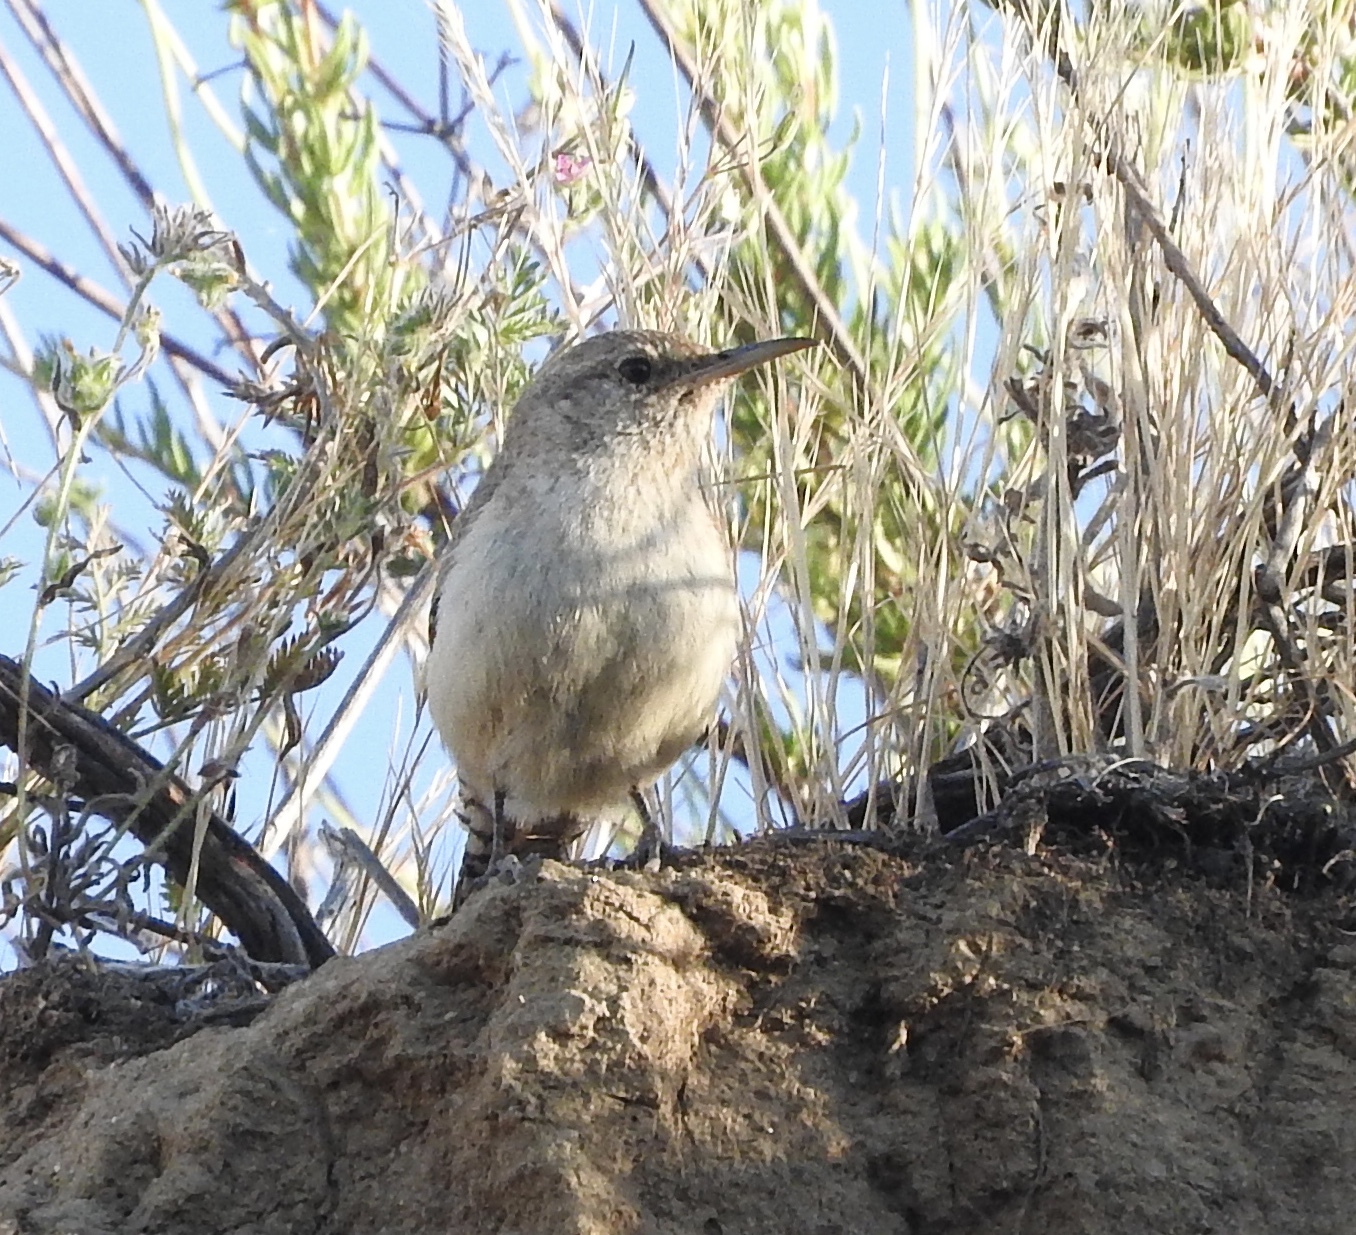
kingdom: Animalia
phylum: Chordata
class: Aves
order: Passeriformes
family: Troglodytidae
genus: Salpinctes
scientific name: Salpinctes obsoletus
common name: Rock wren
